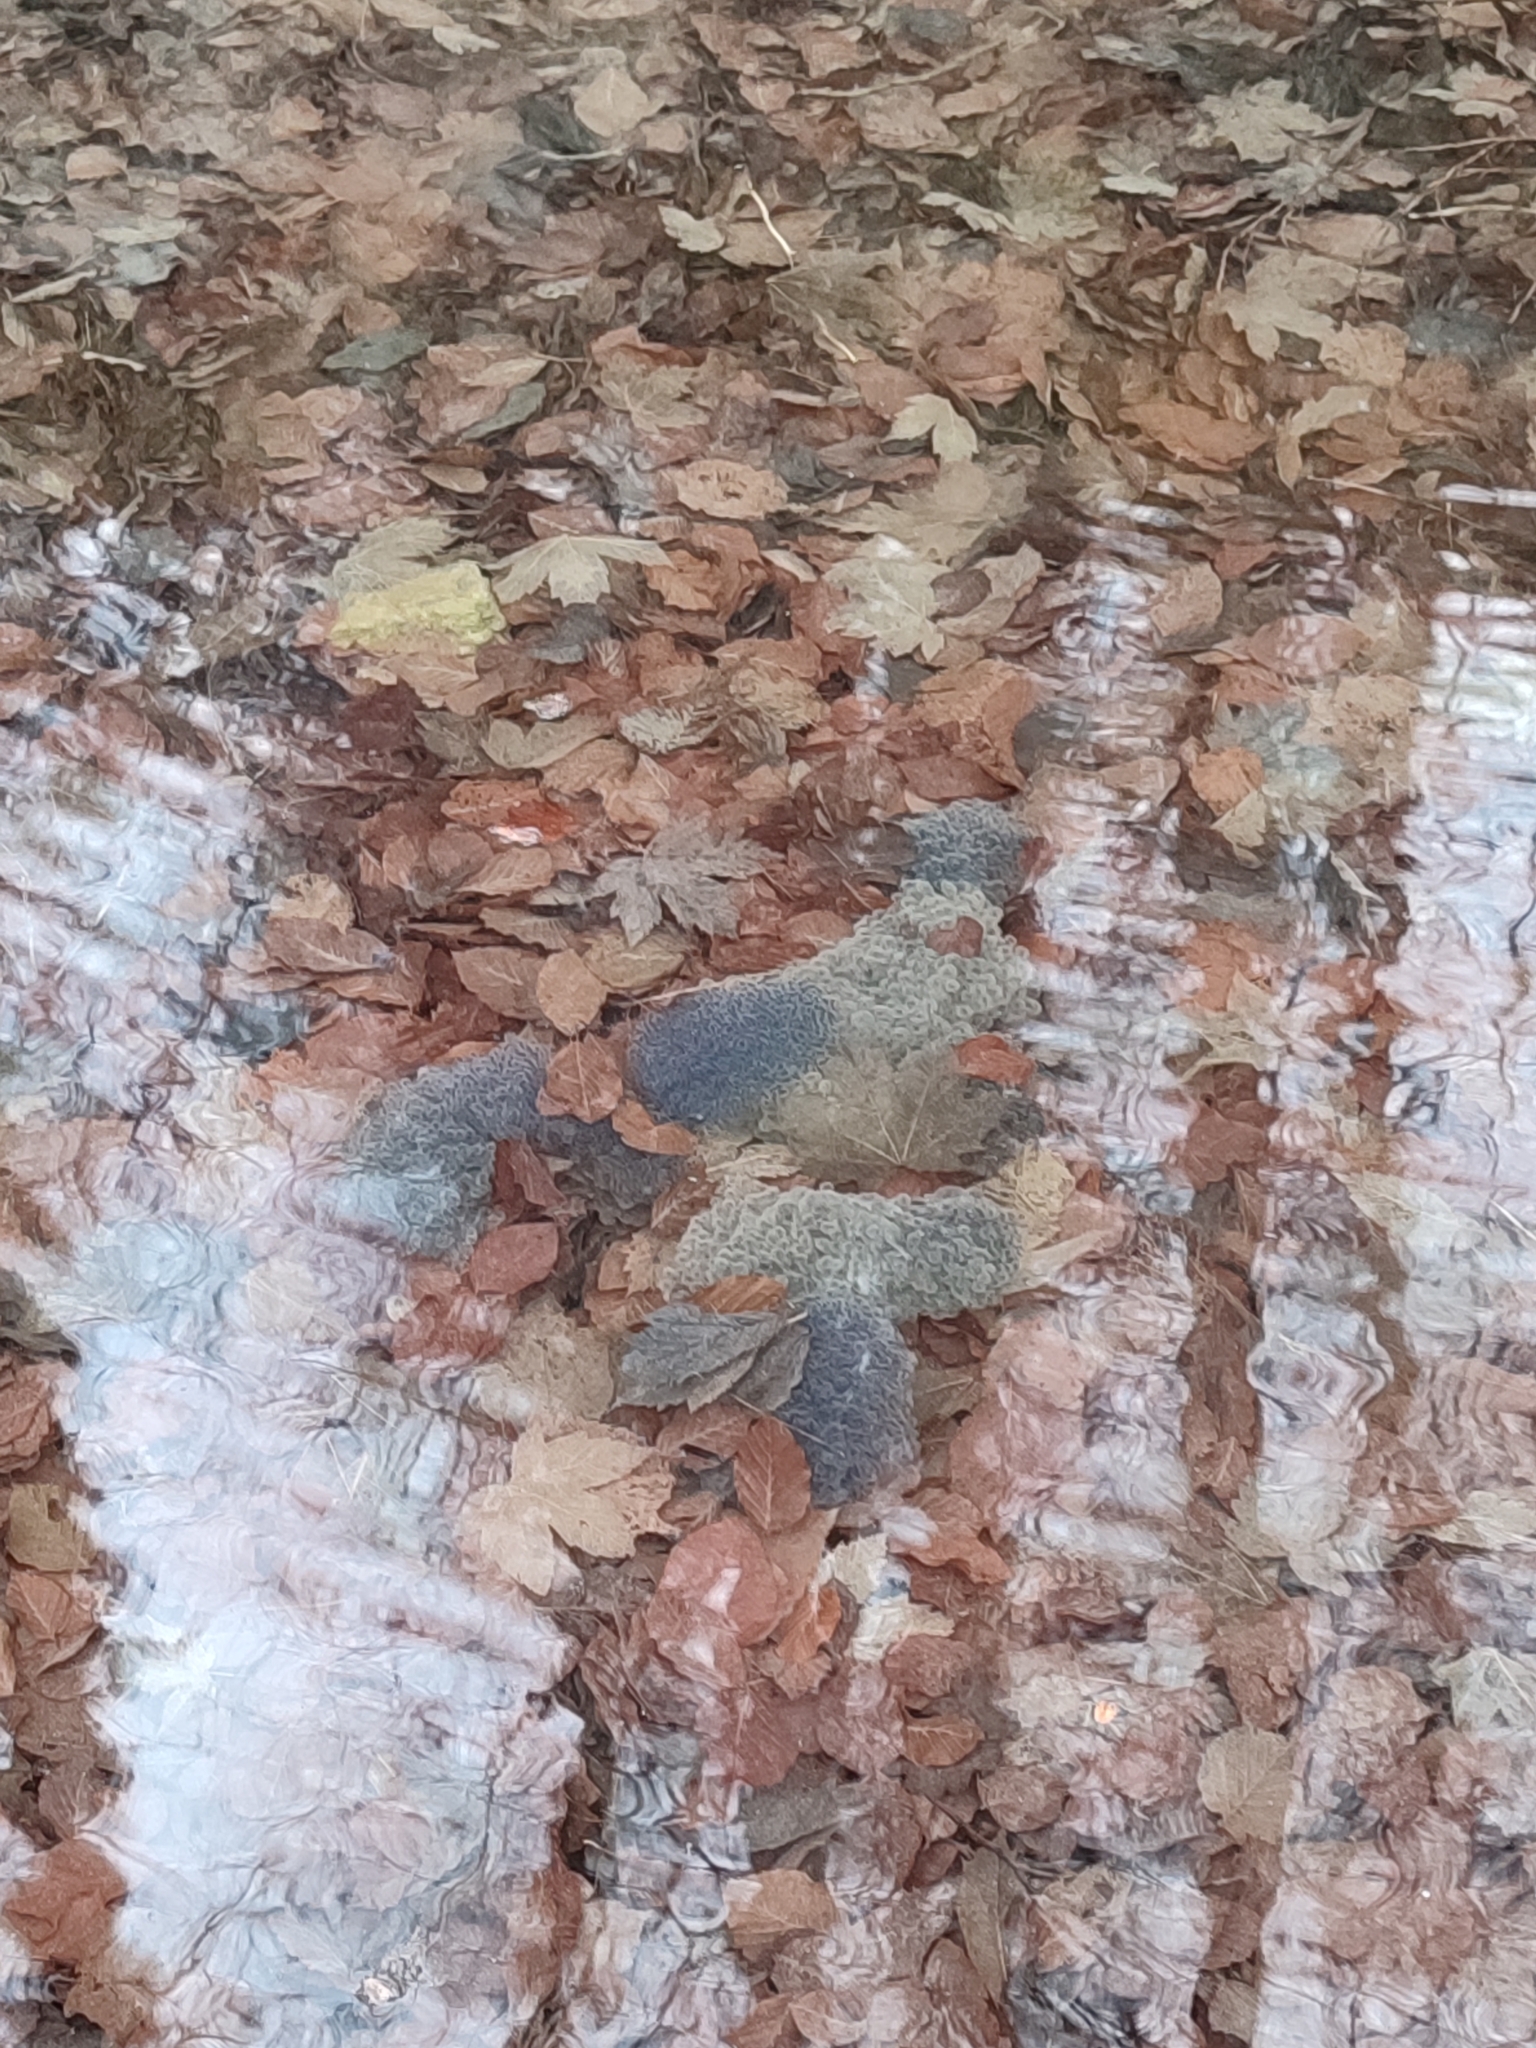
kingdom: Animalia
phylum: Chordata
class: Amphibia
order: Anura
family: Ranidae
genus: Rana
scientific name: Rana temporaria
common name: Common frog
